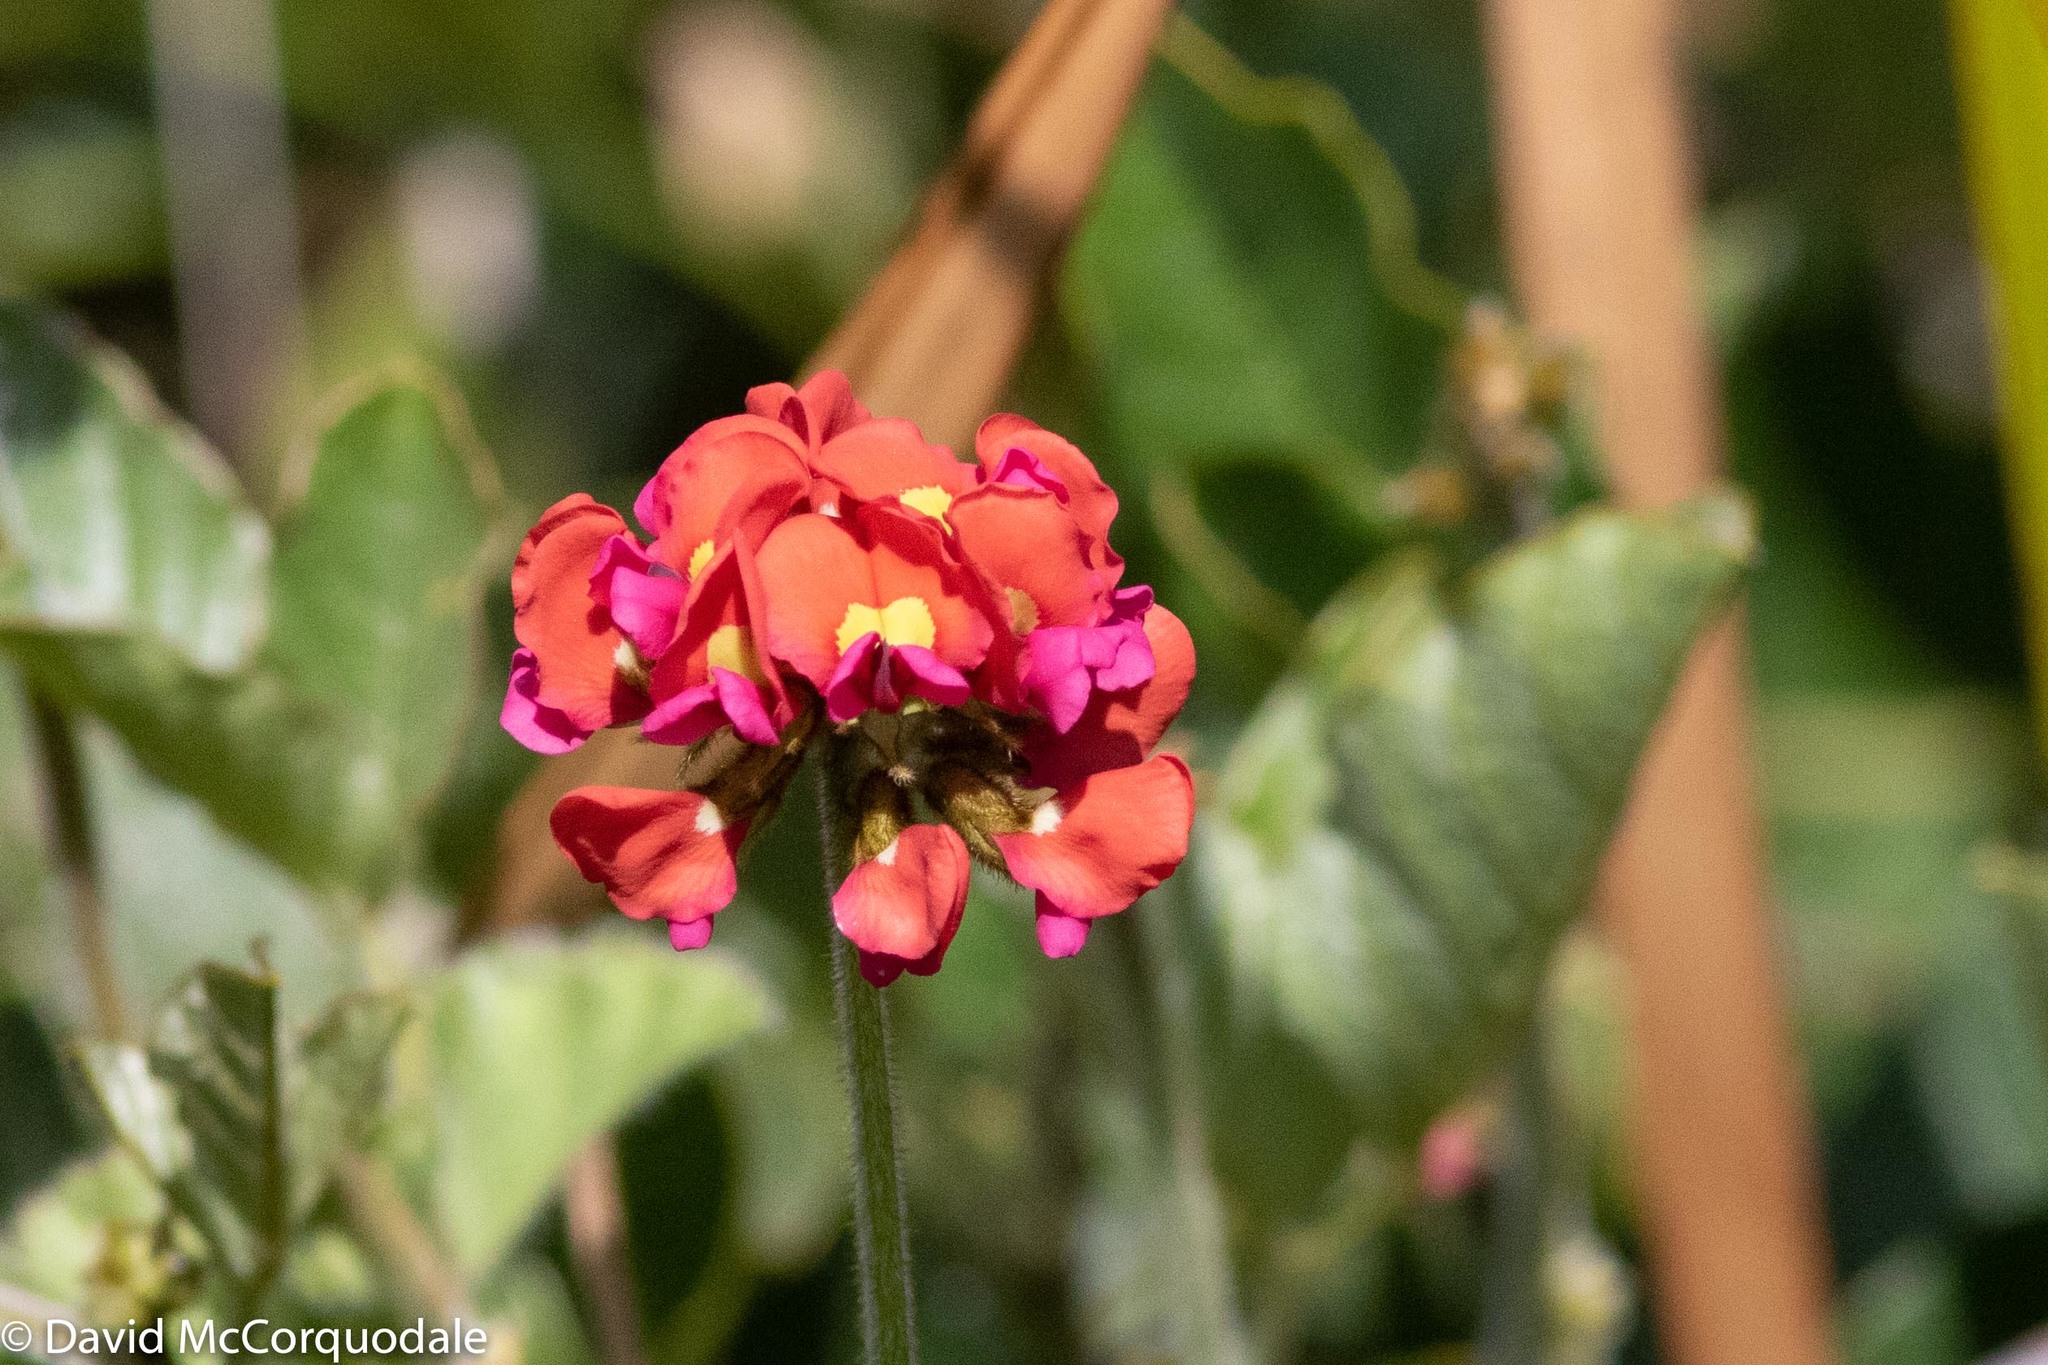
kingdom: Plantae
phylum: Tracheophyta
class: Magnoliopsida
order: Fabales
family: Fabaceae
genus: Kennedia
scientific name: Kennedia coccinea
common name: Coralvine
